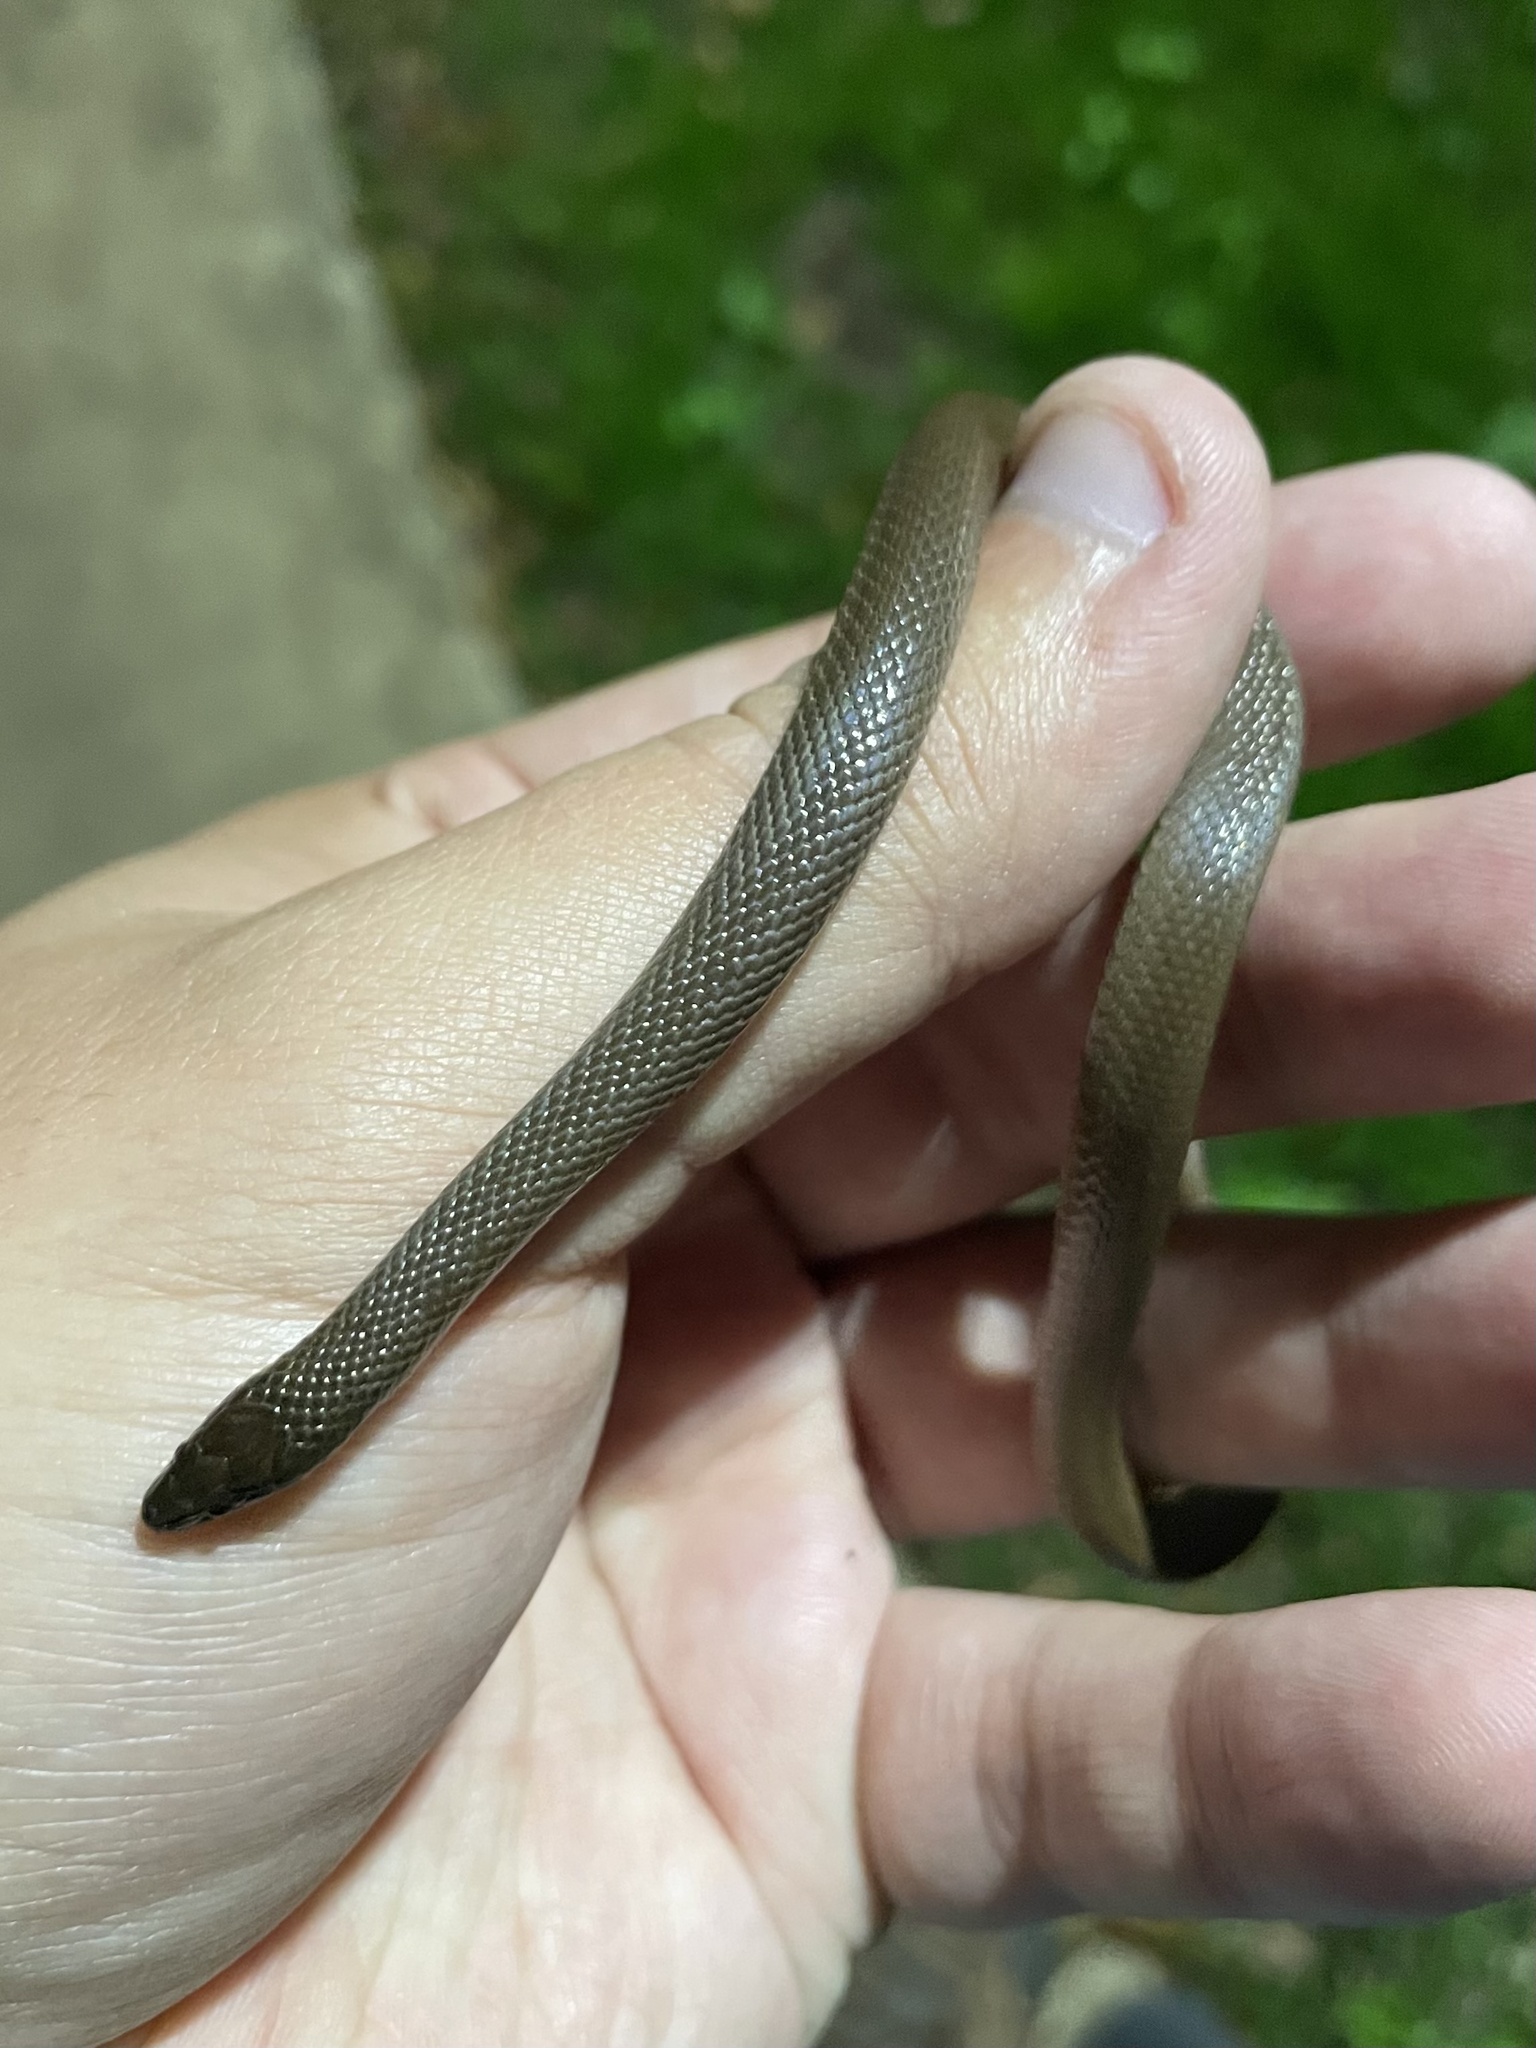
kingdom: Animalia
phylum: Chordata
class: Squamata
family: Colubridae
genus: Haldea
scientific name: Haldea striatula
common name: Rough earth snake
